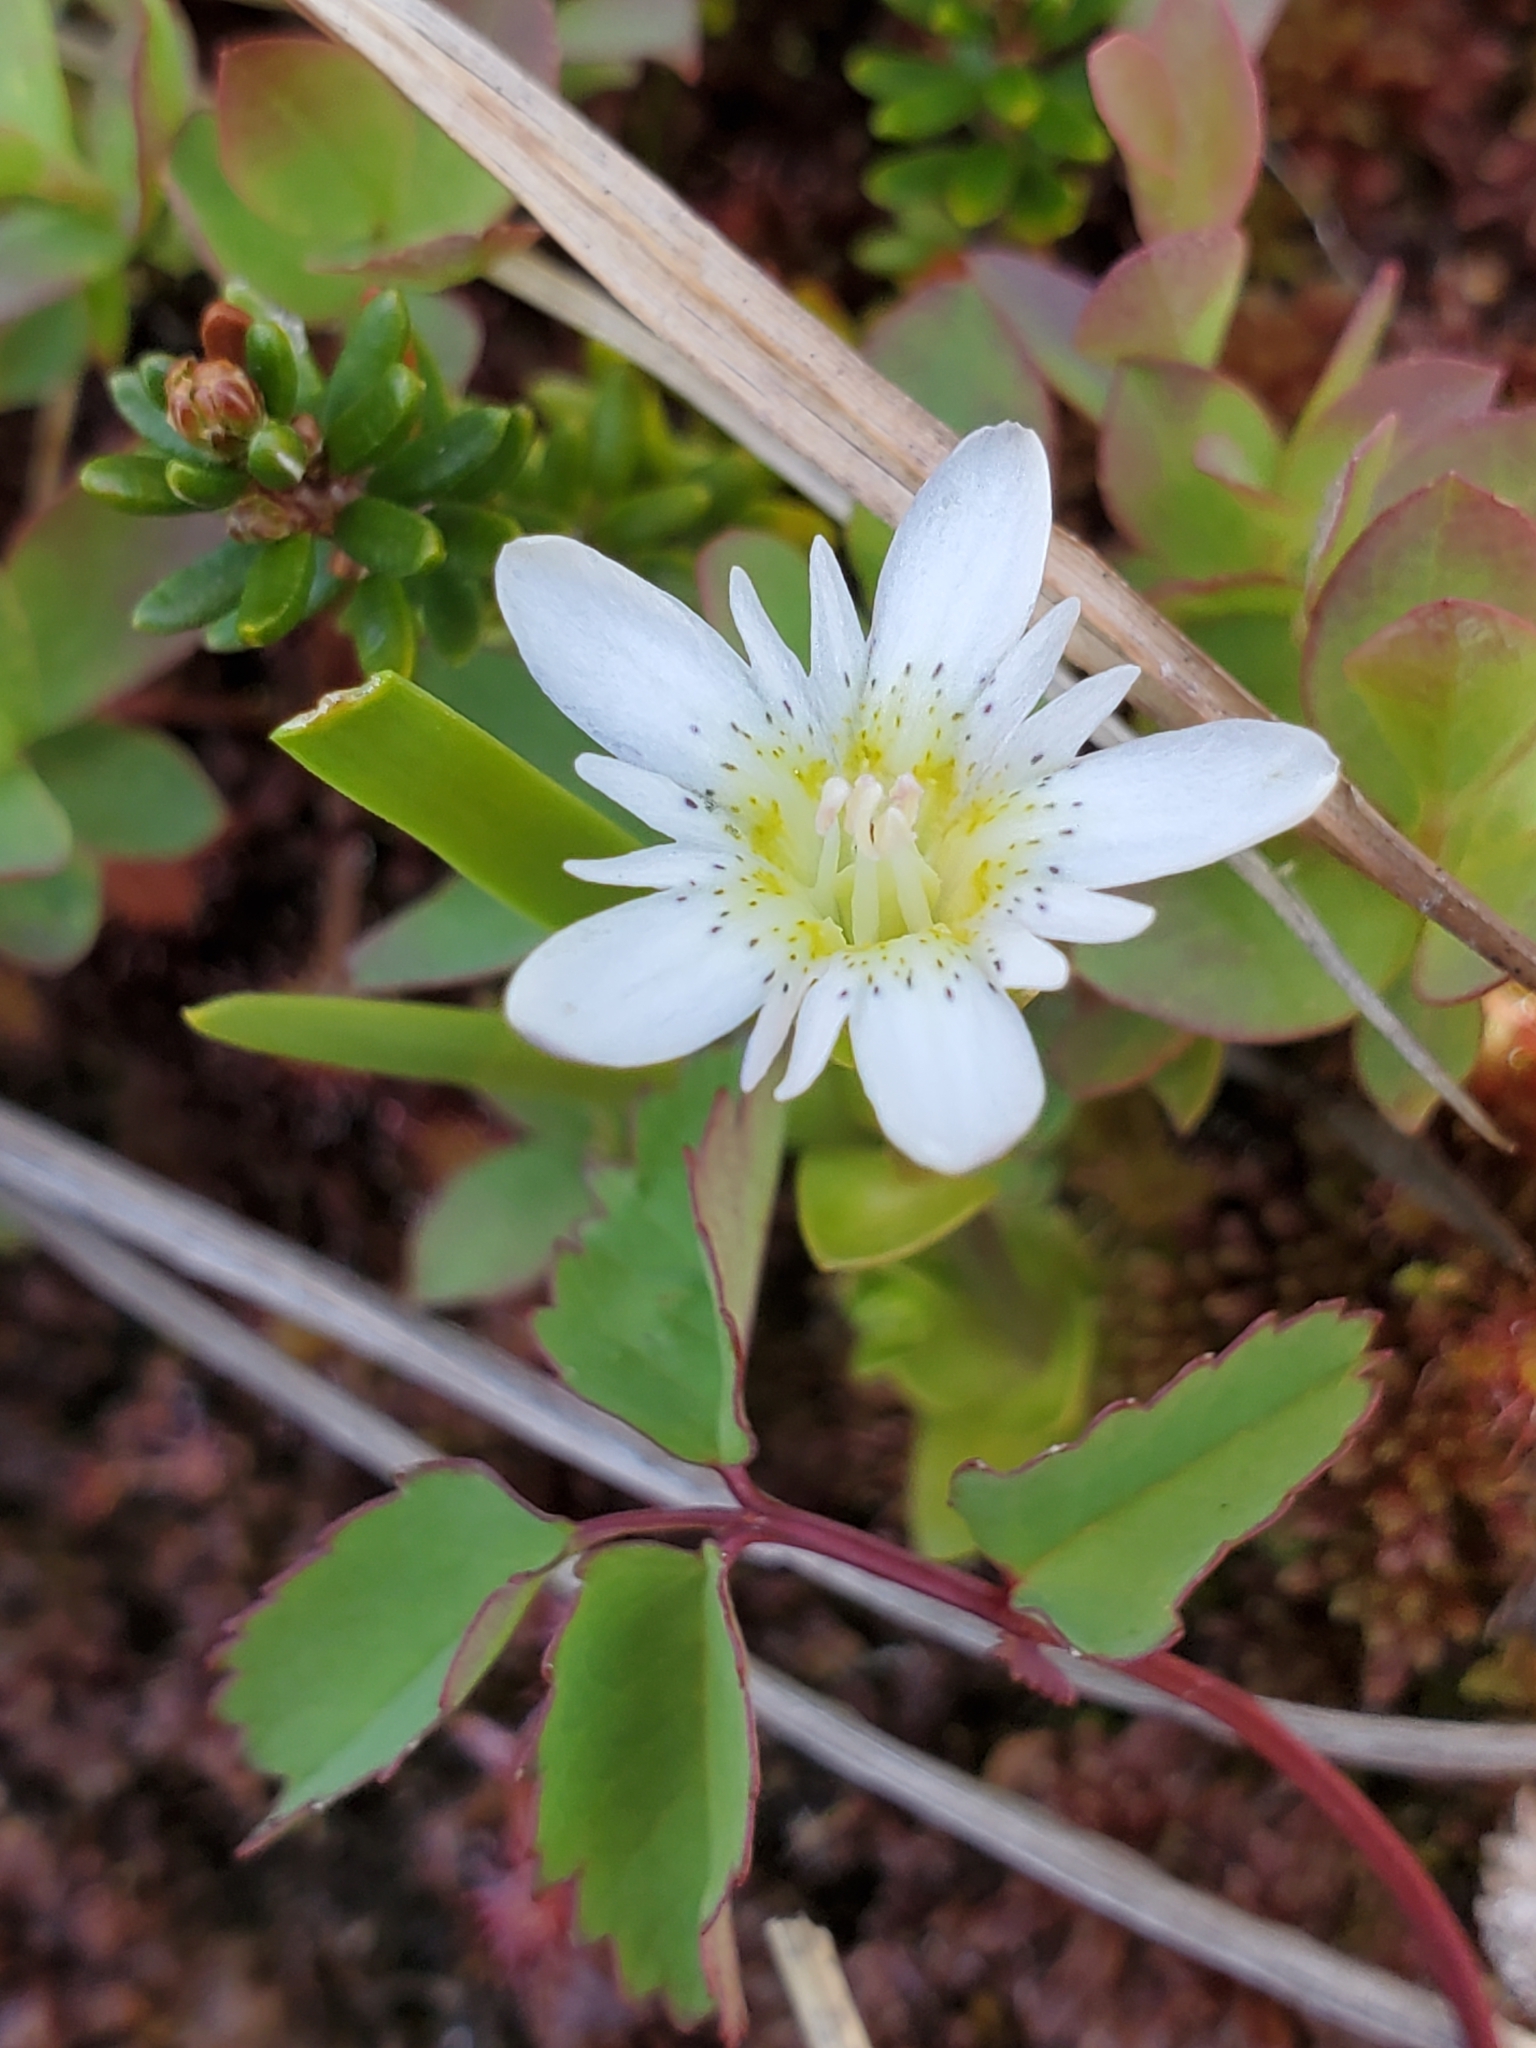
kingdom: Plantae
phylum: Tracheophyta
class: Magnoliopsida
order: Gentianales
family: Gentianaceae
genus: Gentiana
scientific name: Gentiana douglasiana
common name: Swamp gentian
